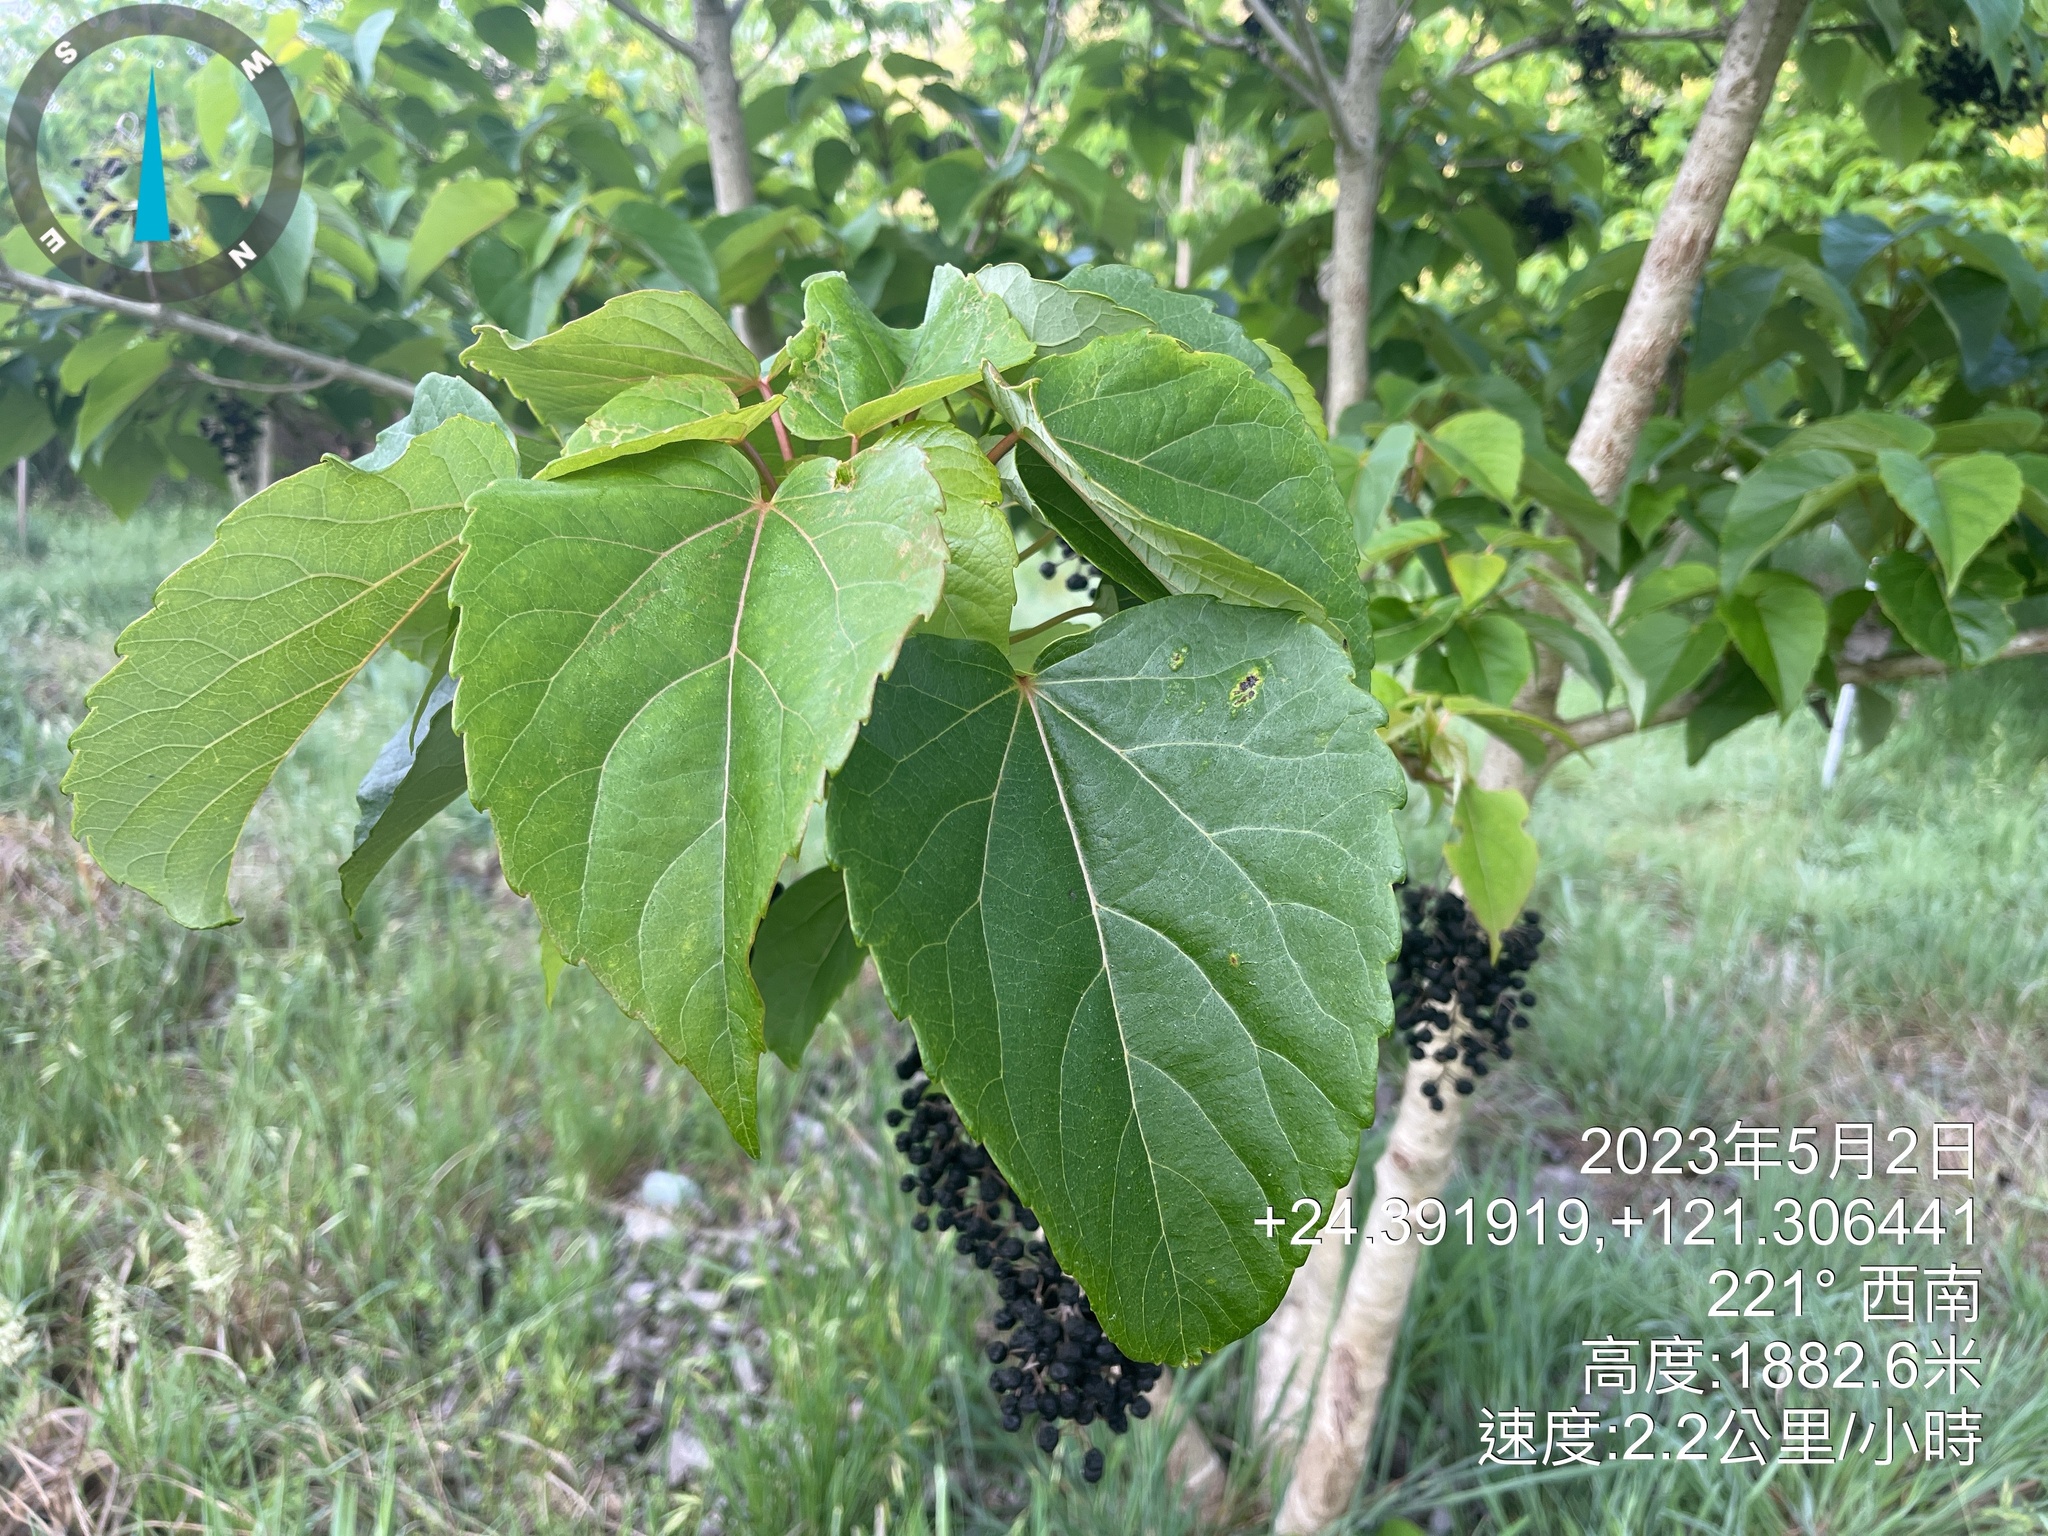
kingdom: Plantae
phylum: Tracheophyta
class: Magnoliopsida
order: Malpighiales
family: Salicaceae
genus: Idesia
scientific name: Idesia polycarpa
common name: Idesia tree
